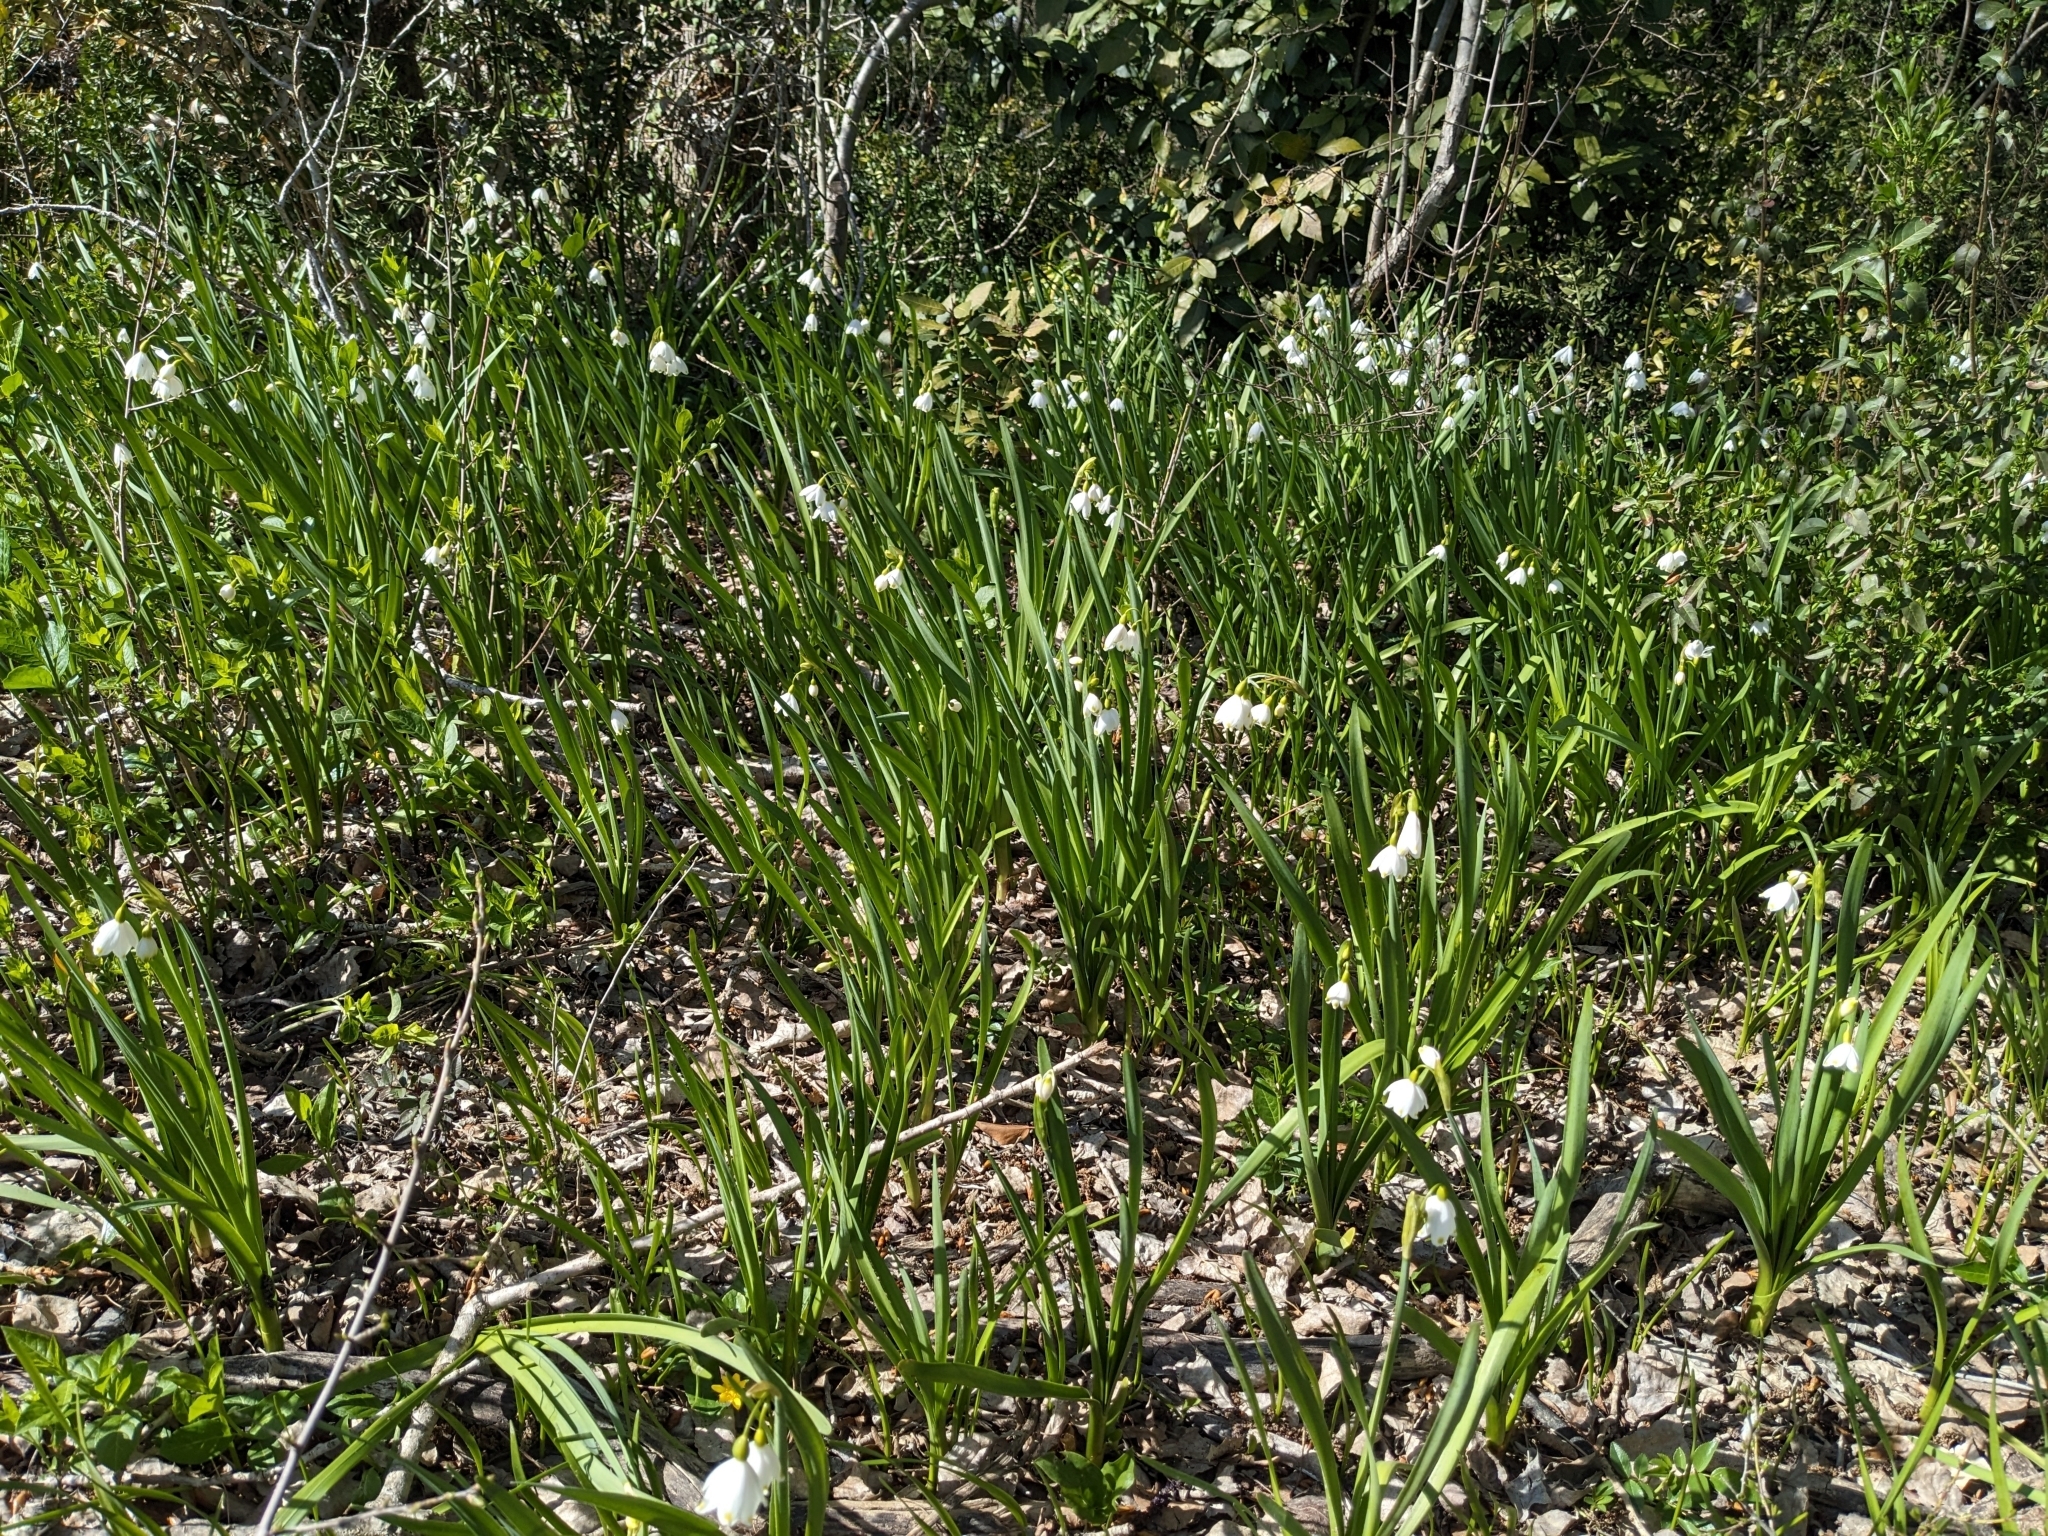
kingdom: Plantae
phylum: Tracheophyta
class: Liliopsida
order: Asparagales
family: Amaryllidaceae
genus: Leucojum
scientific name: Leucojum aestivum
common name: Summer snowflake
